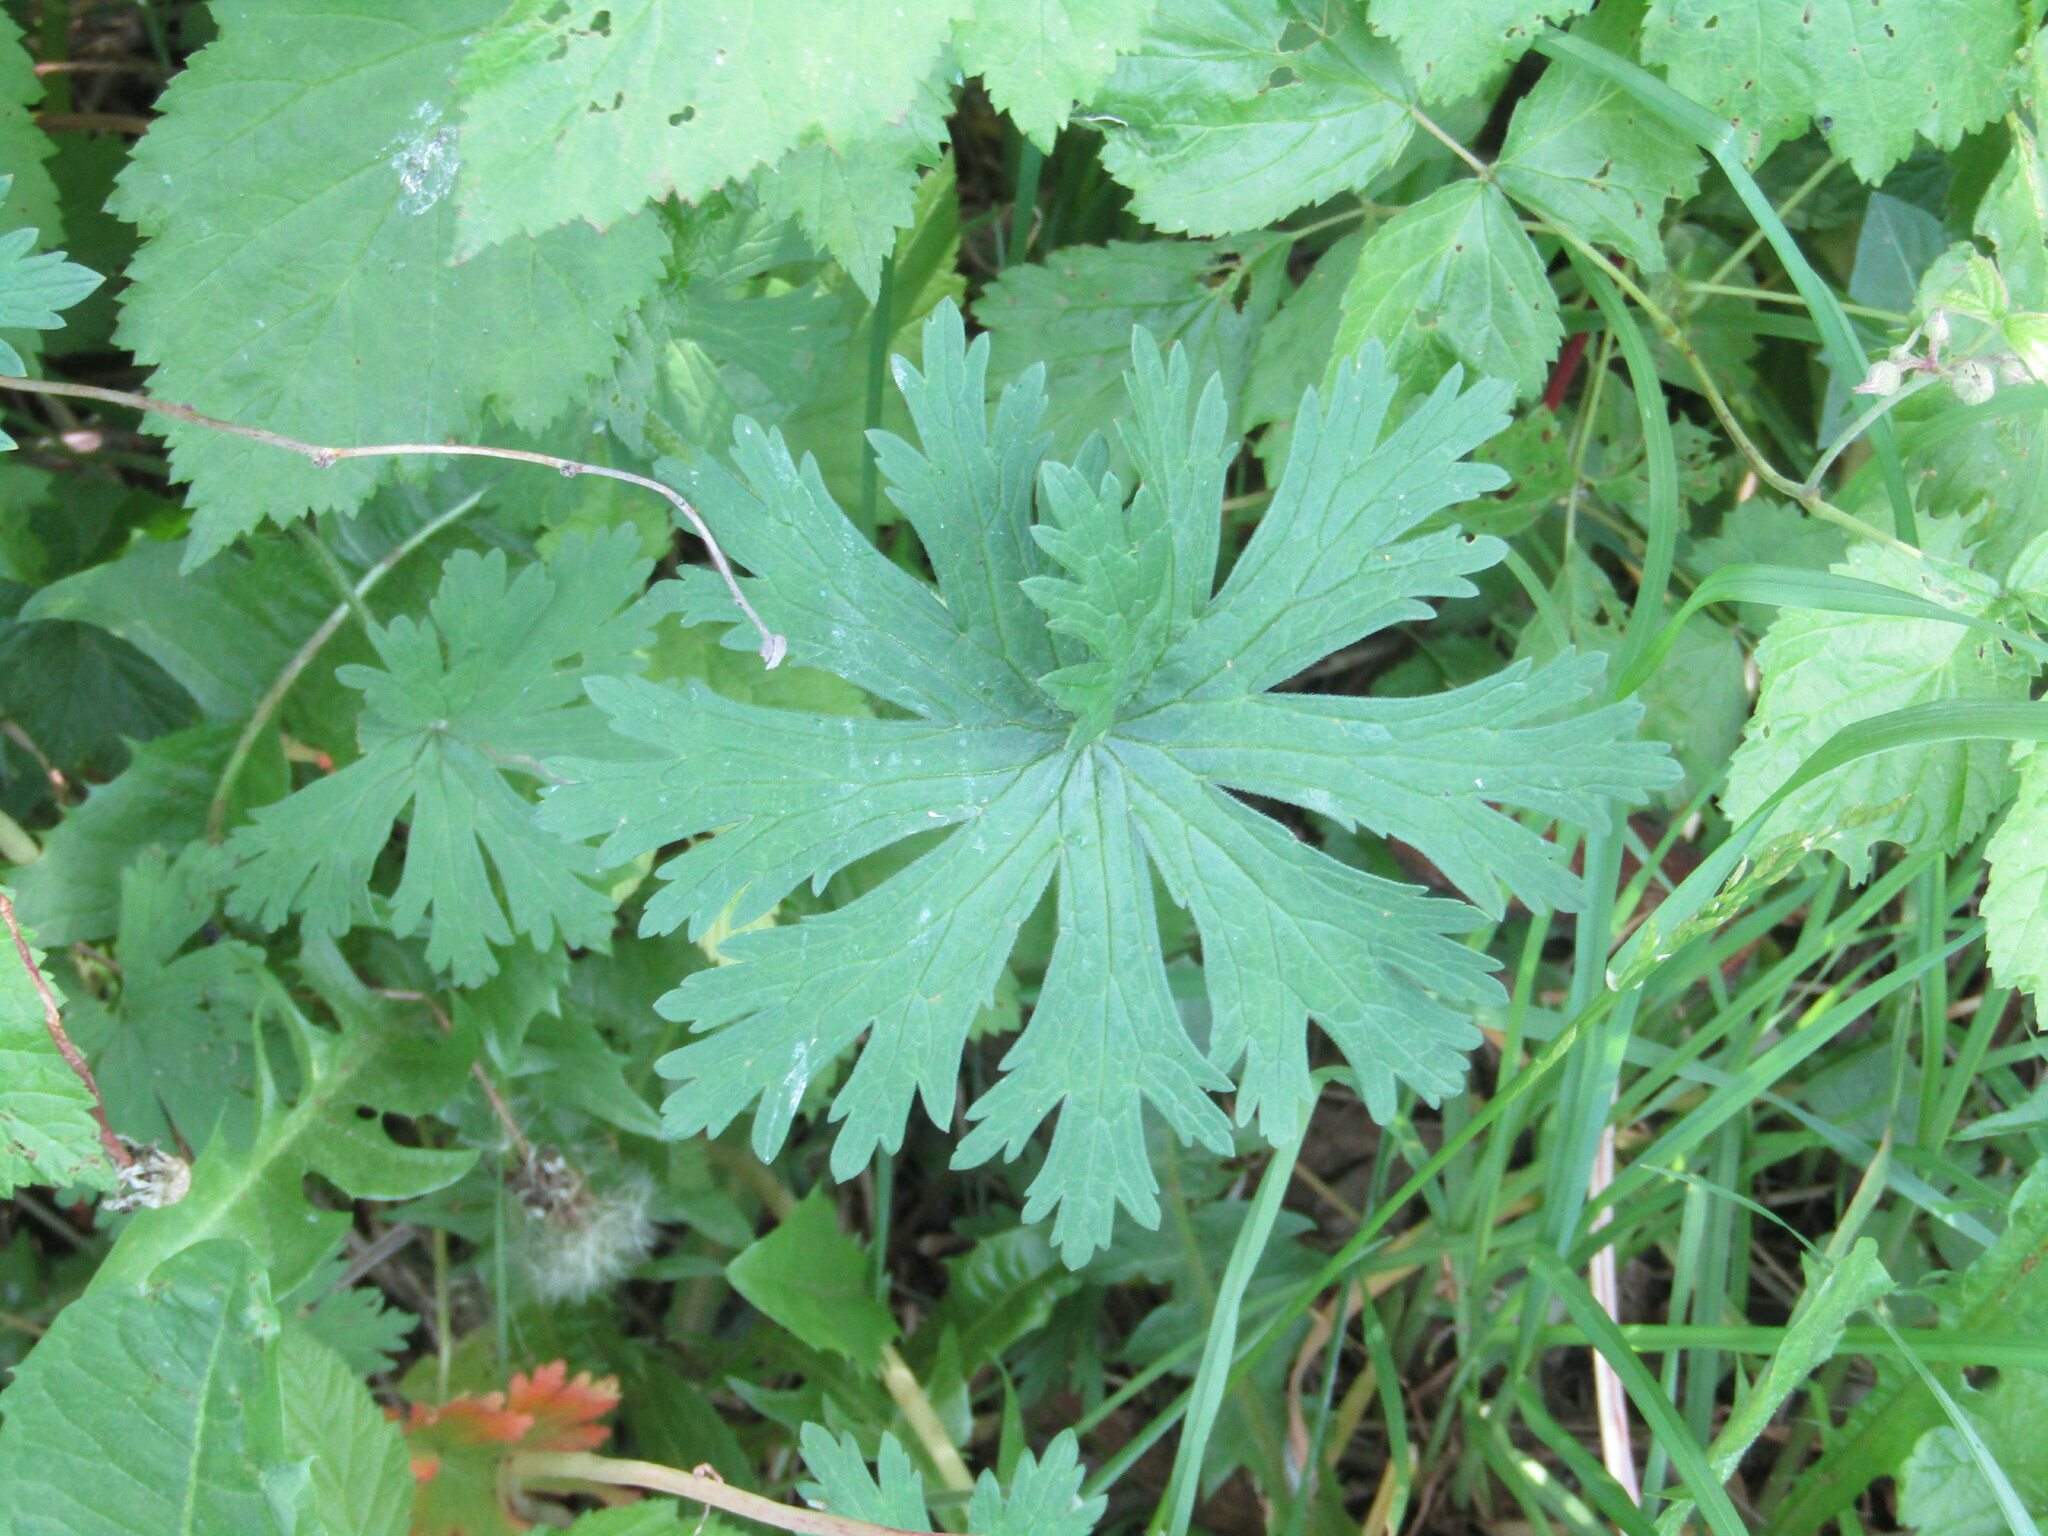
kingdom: Plantae
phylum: Tracheophyta
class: Magnoliopsida
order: Geraniales
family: Geraniaceae
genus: Geranium
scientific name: Geranium pratense
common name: Meadow crane's-bill
